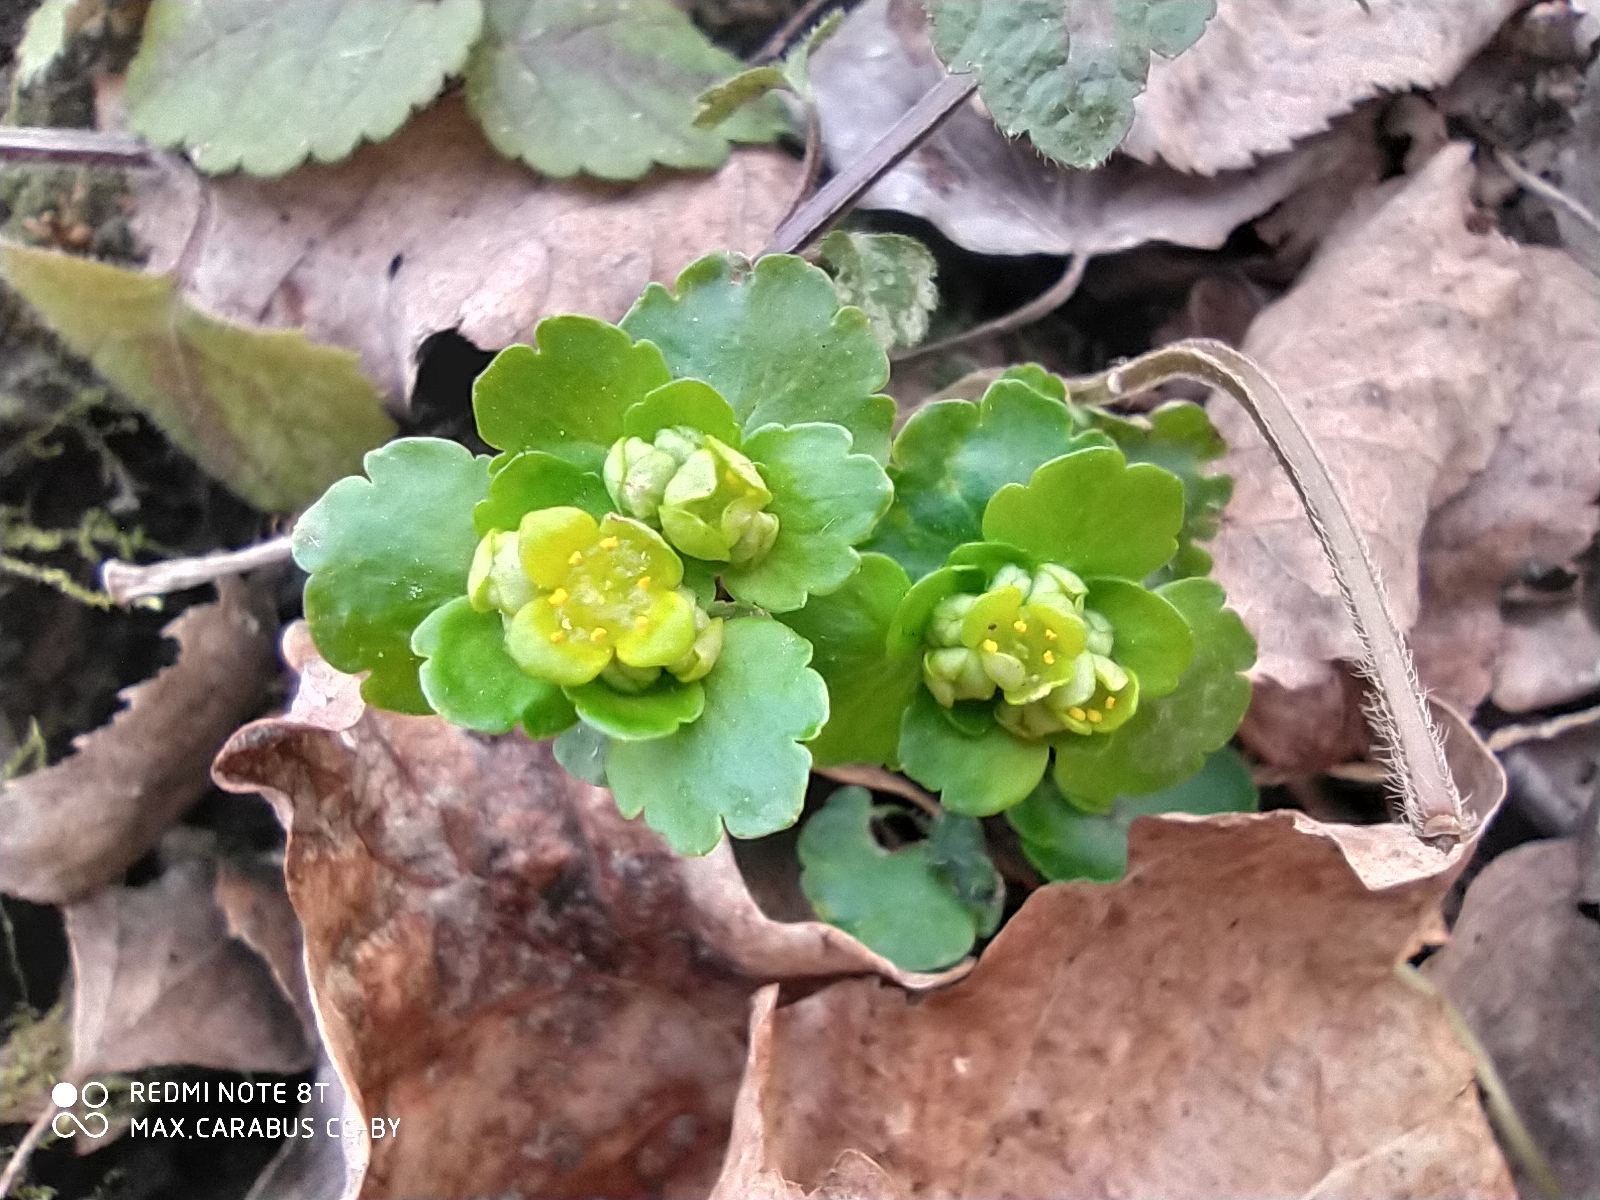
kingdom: Plantae
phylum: Tracheophyta
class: Magnoliopsida
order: Saxifragales
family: Saxifragaceae
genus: Chrysosplenium
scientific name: Chrysosplenium alternifolium
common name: Alternate-leaved golden-saxifrage
